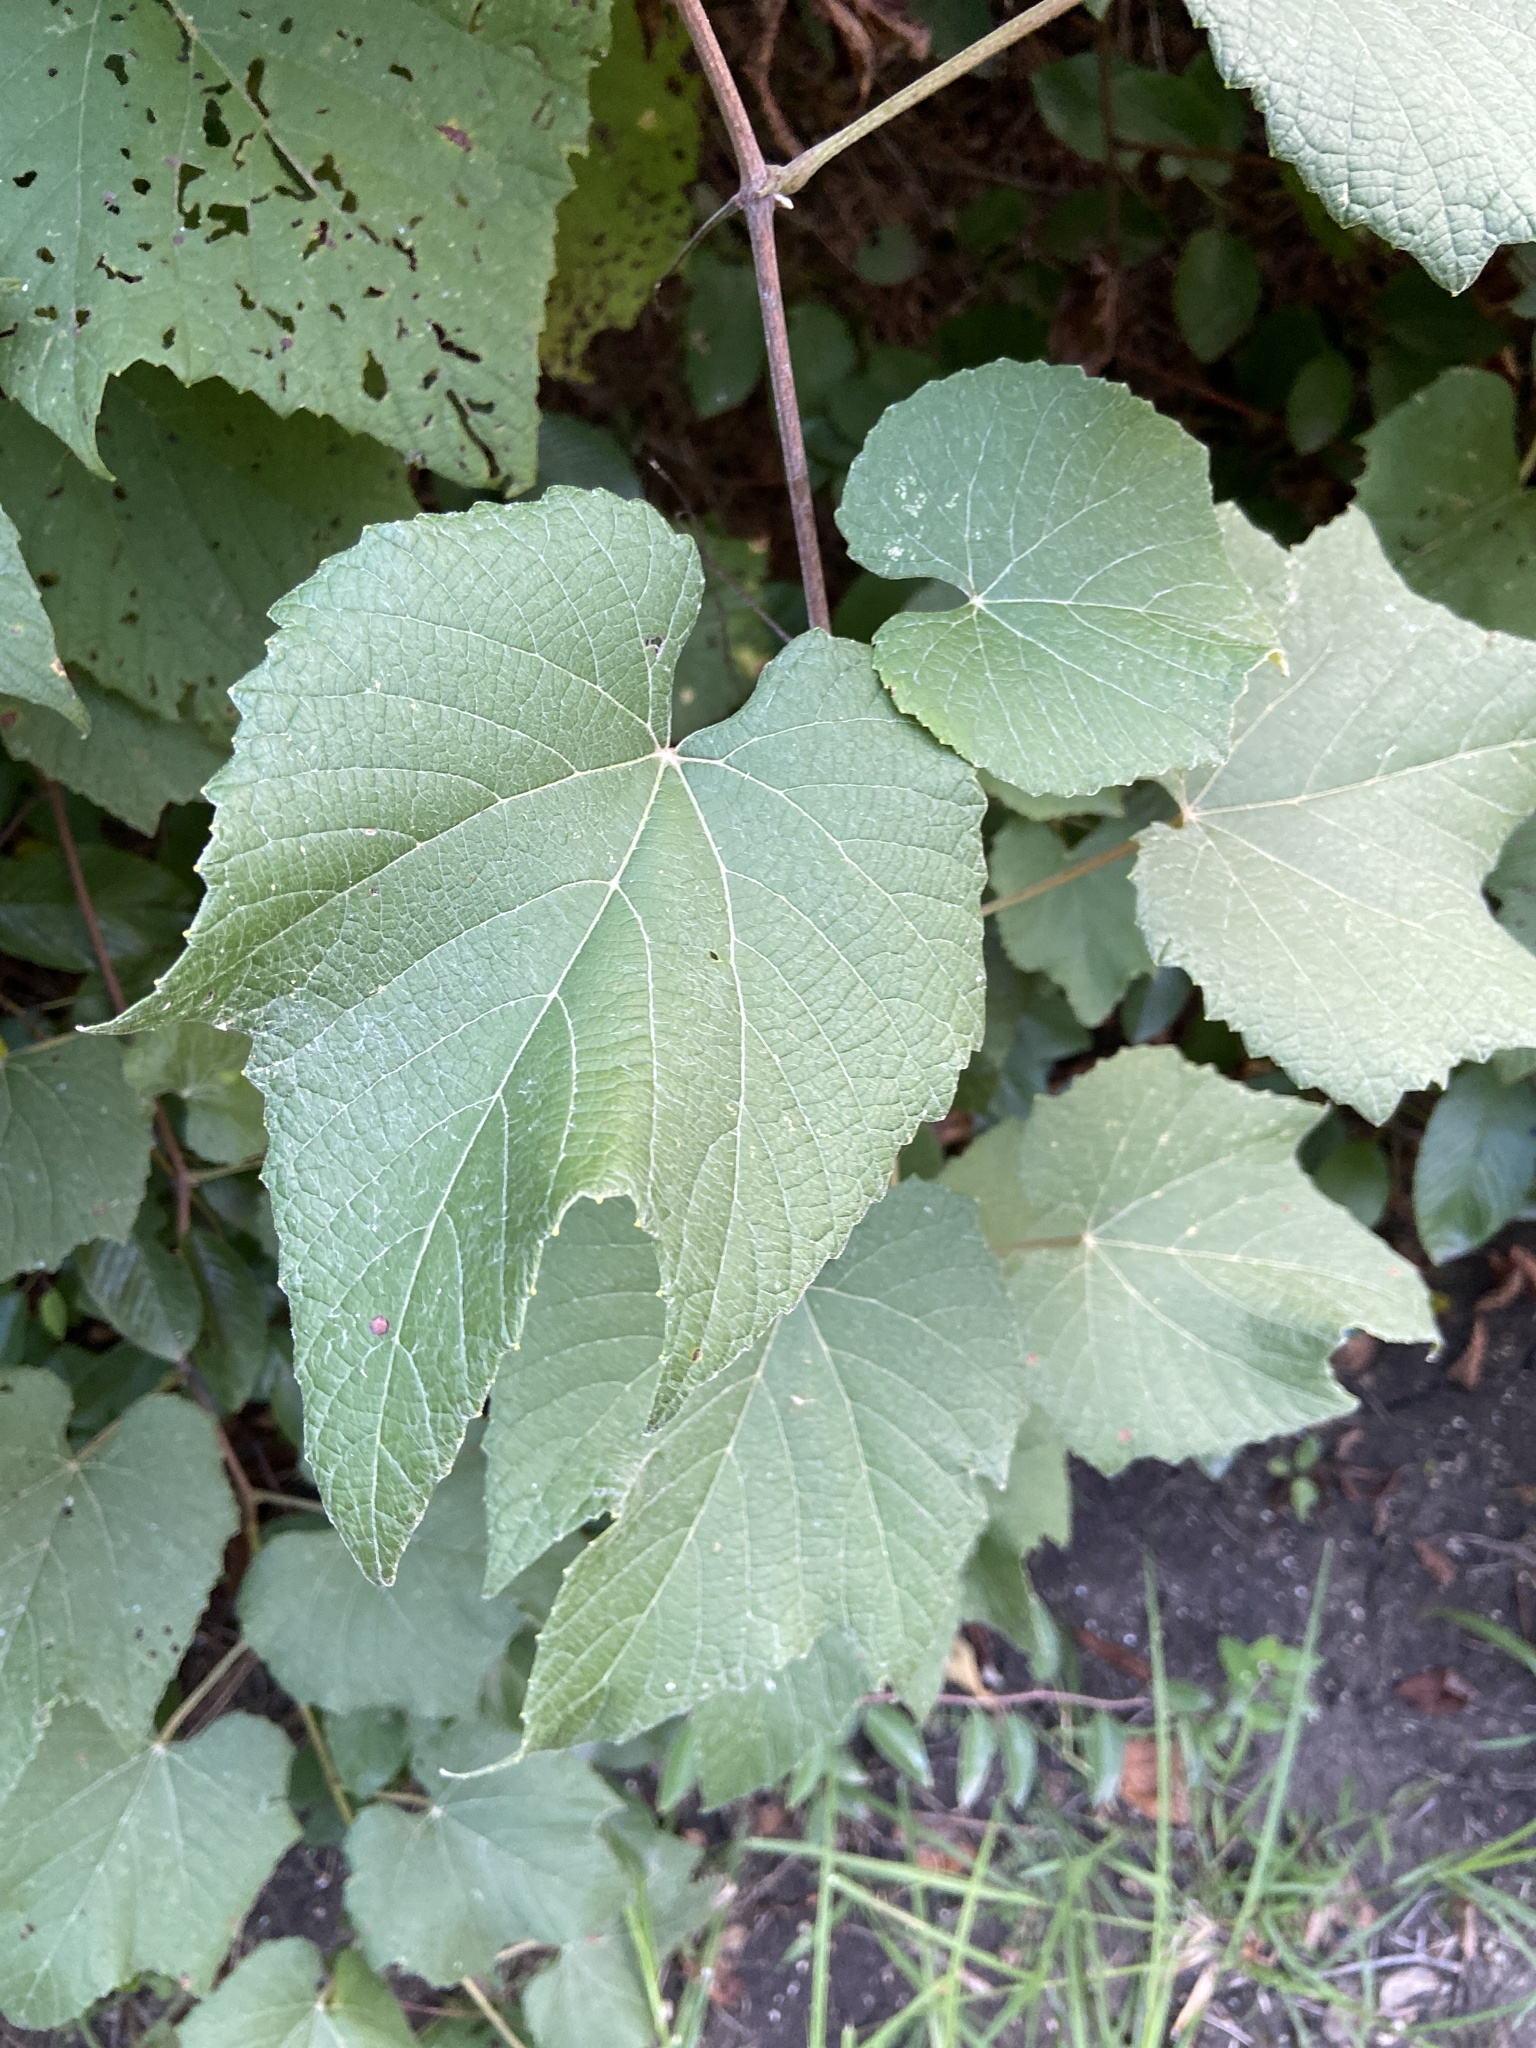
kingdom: Plantae
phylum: Tracheophyta
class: Magnoliopsida
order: Vitales
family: Vitaceae
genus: Vitis
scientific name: Vitis cinerea
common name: Ashy grape
